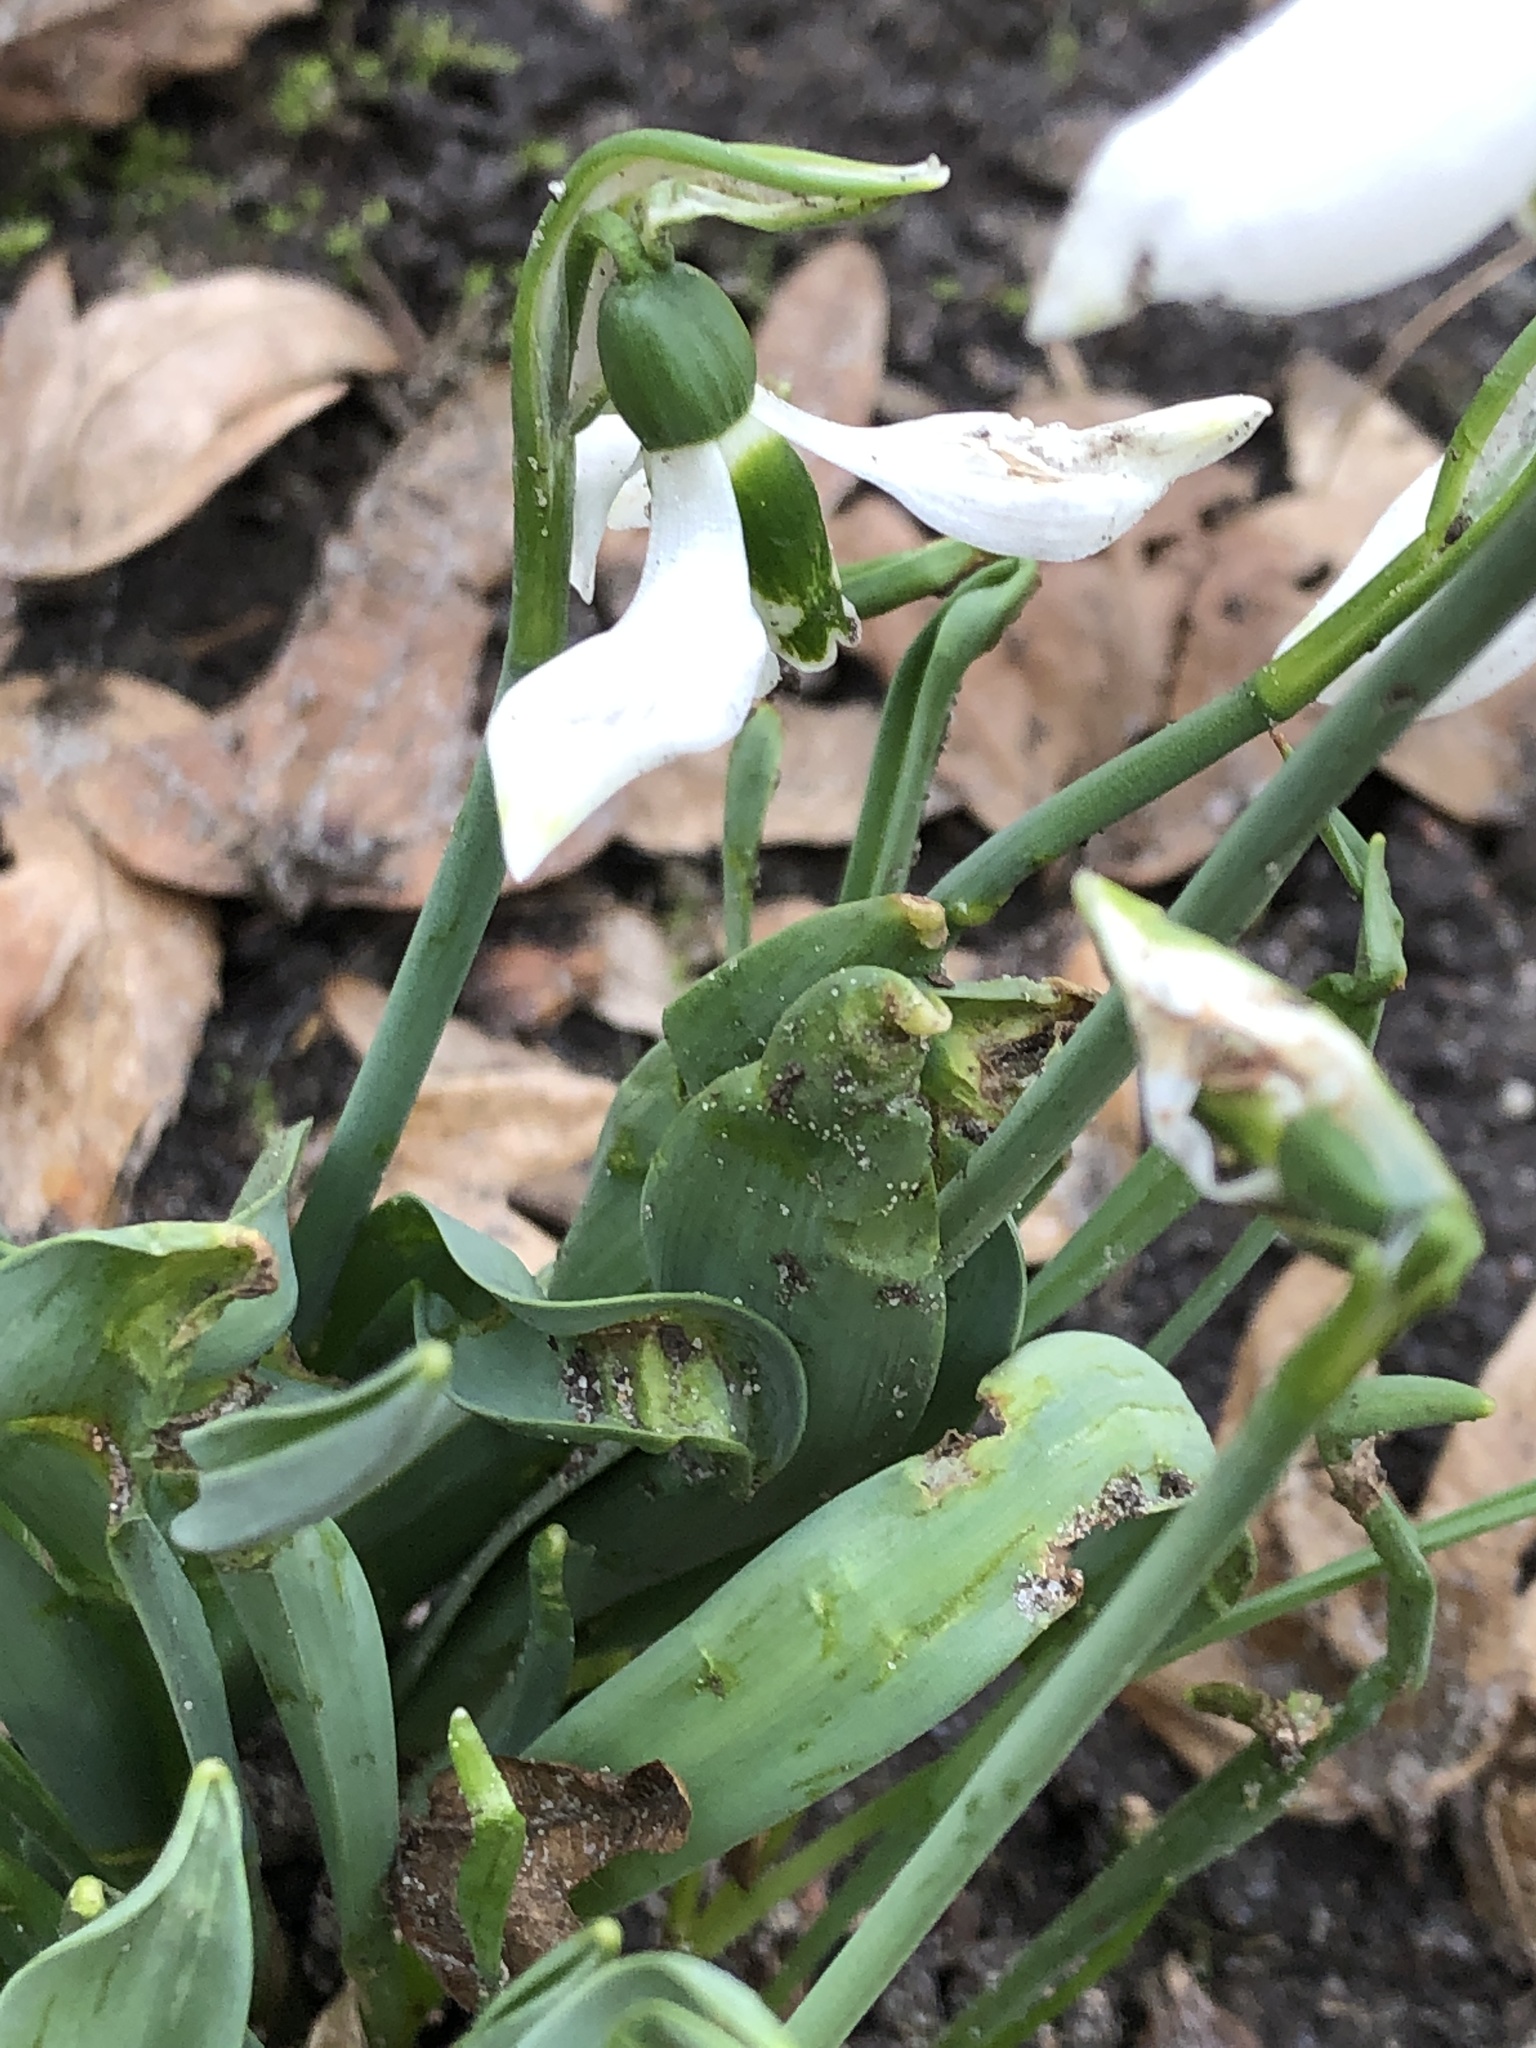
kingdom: Plantae
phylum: Tracheophyta
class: Liliopsida
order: Asparagales
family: Amaryllidaceae
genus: Galanthus
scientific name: Galanthus elwesii
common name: Greater snowdrop
